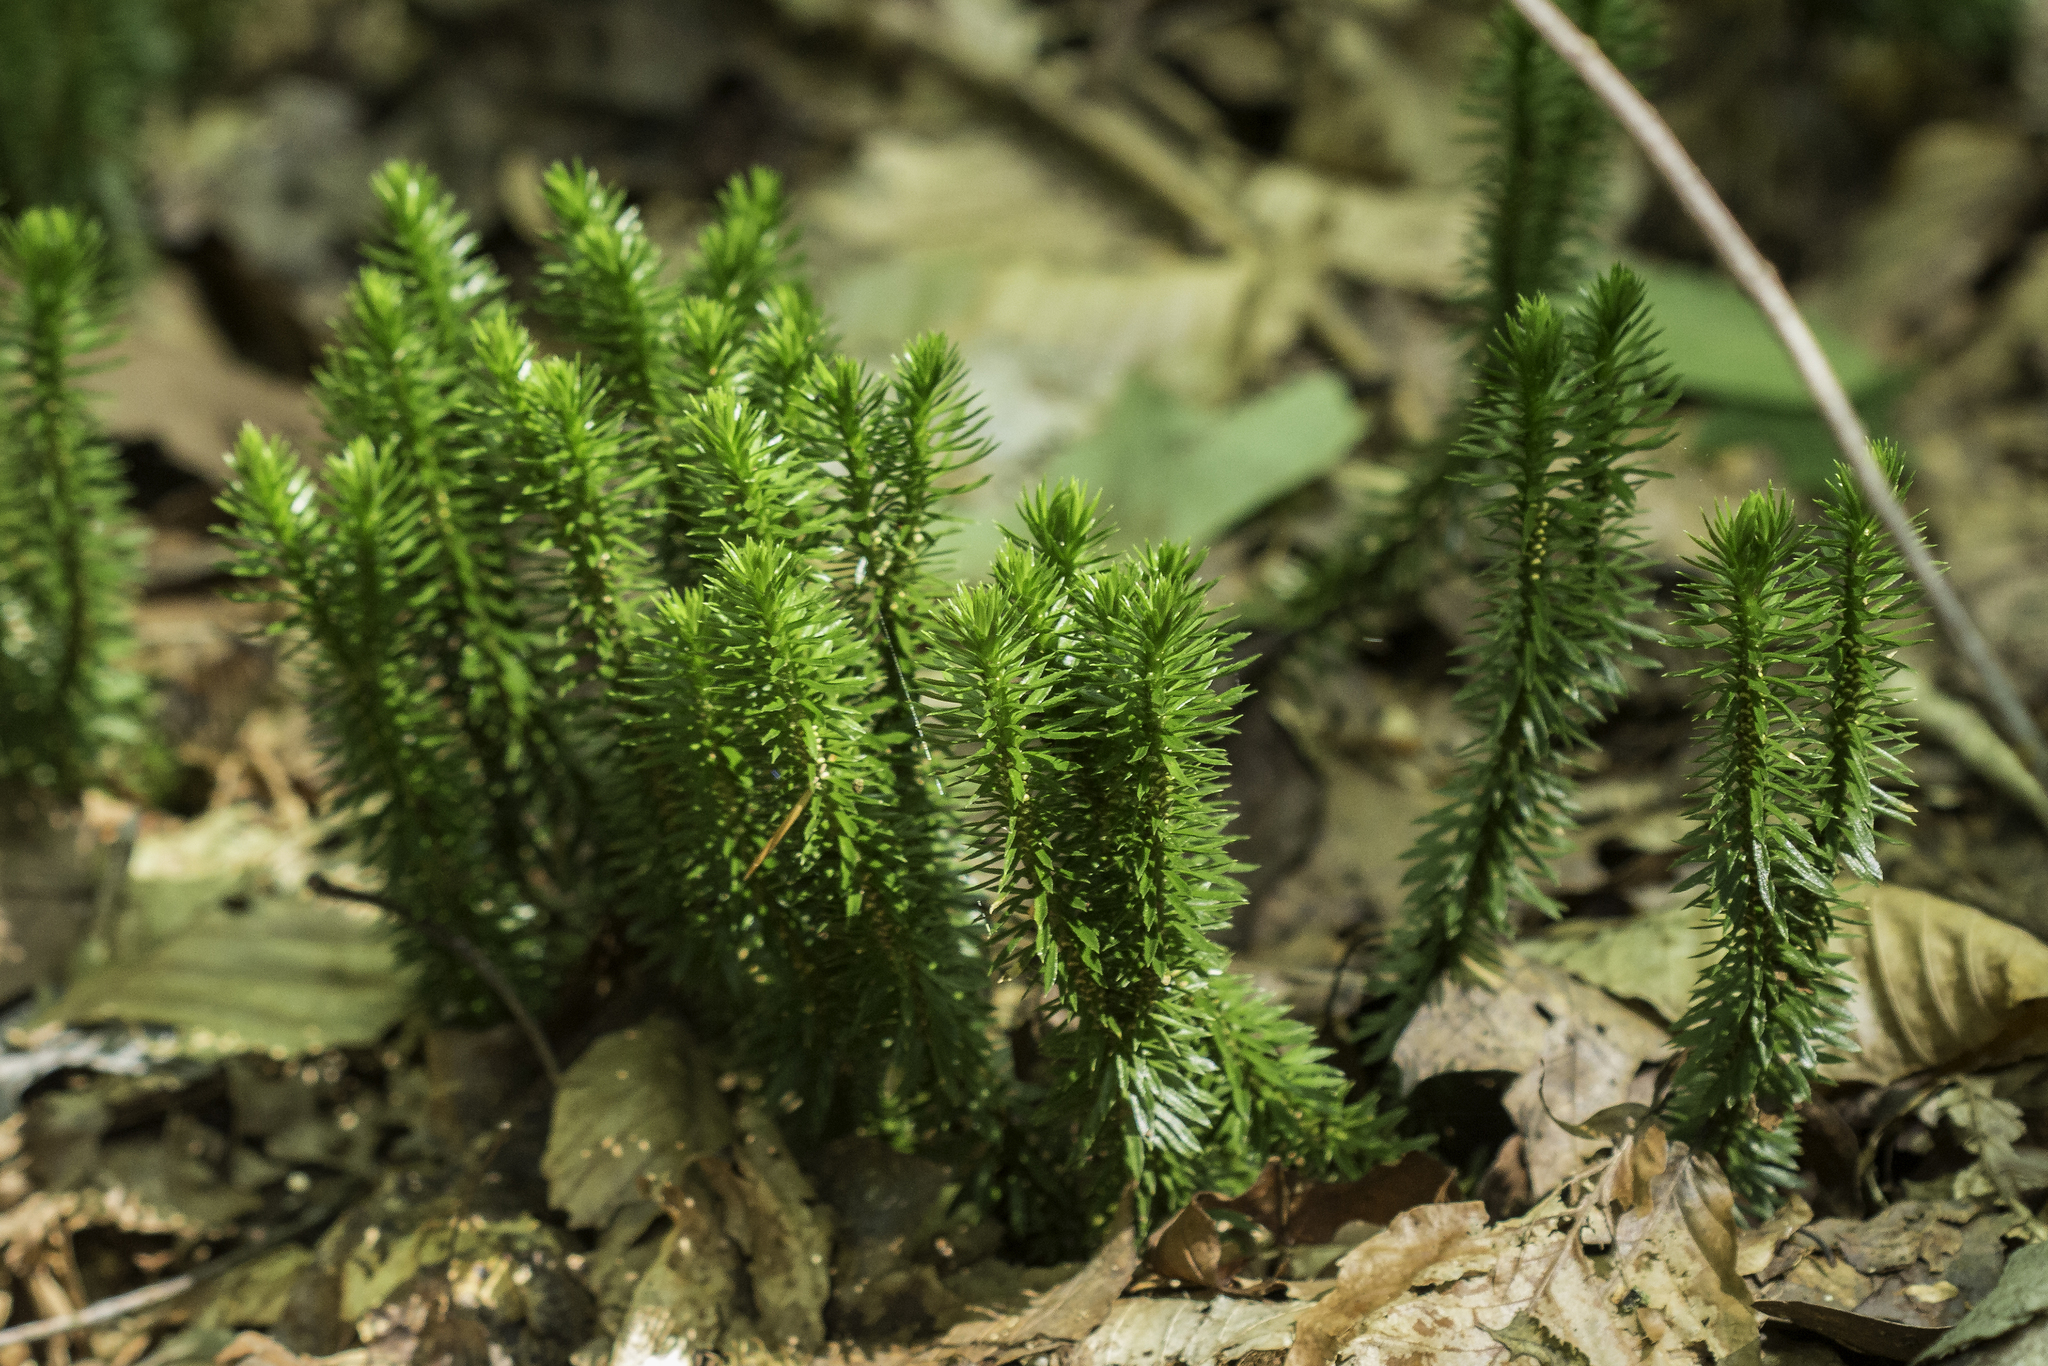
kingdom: Plantae
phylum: Tracheophyta
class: Lycopodiopsida
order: Lycopodiales
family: Lycopodiaceae
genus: Huperzia
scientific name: Huperzia lucidula
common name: Shining clubmoss
